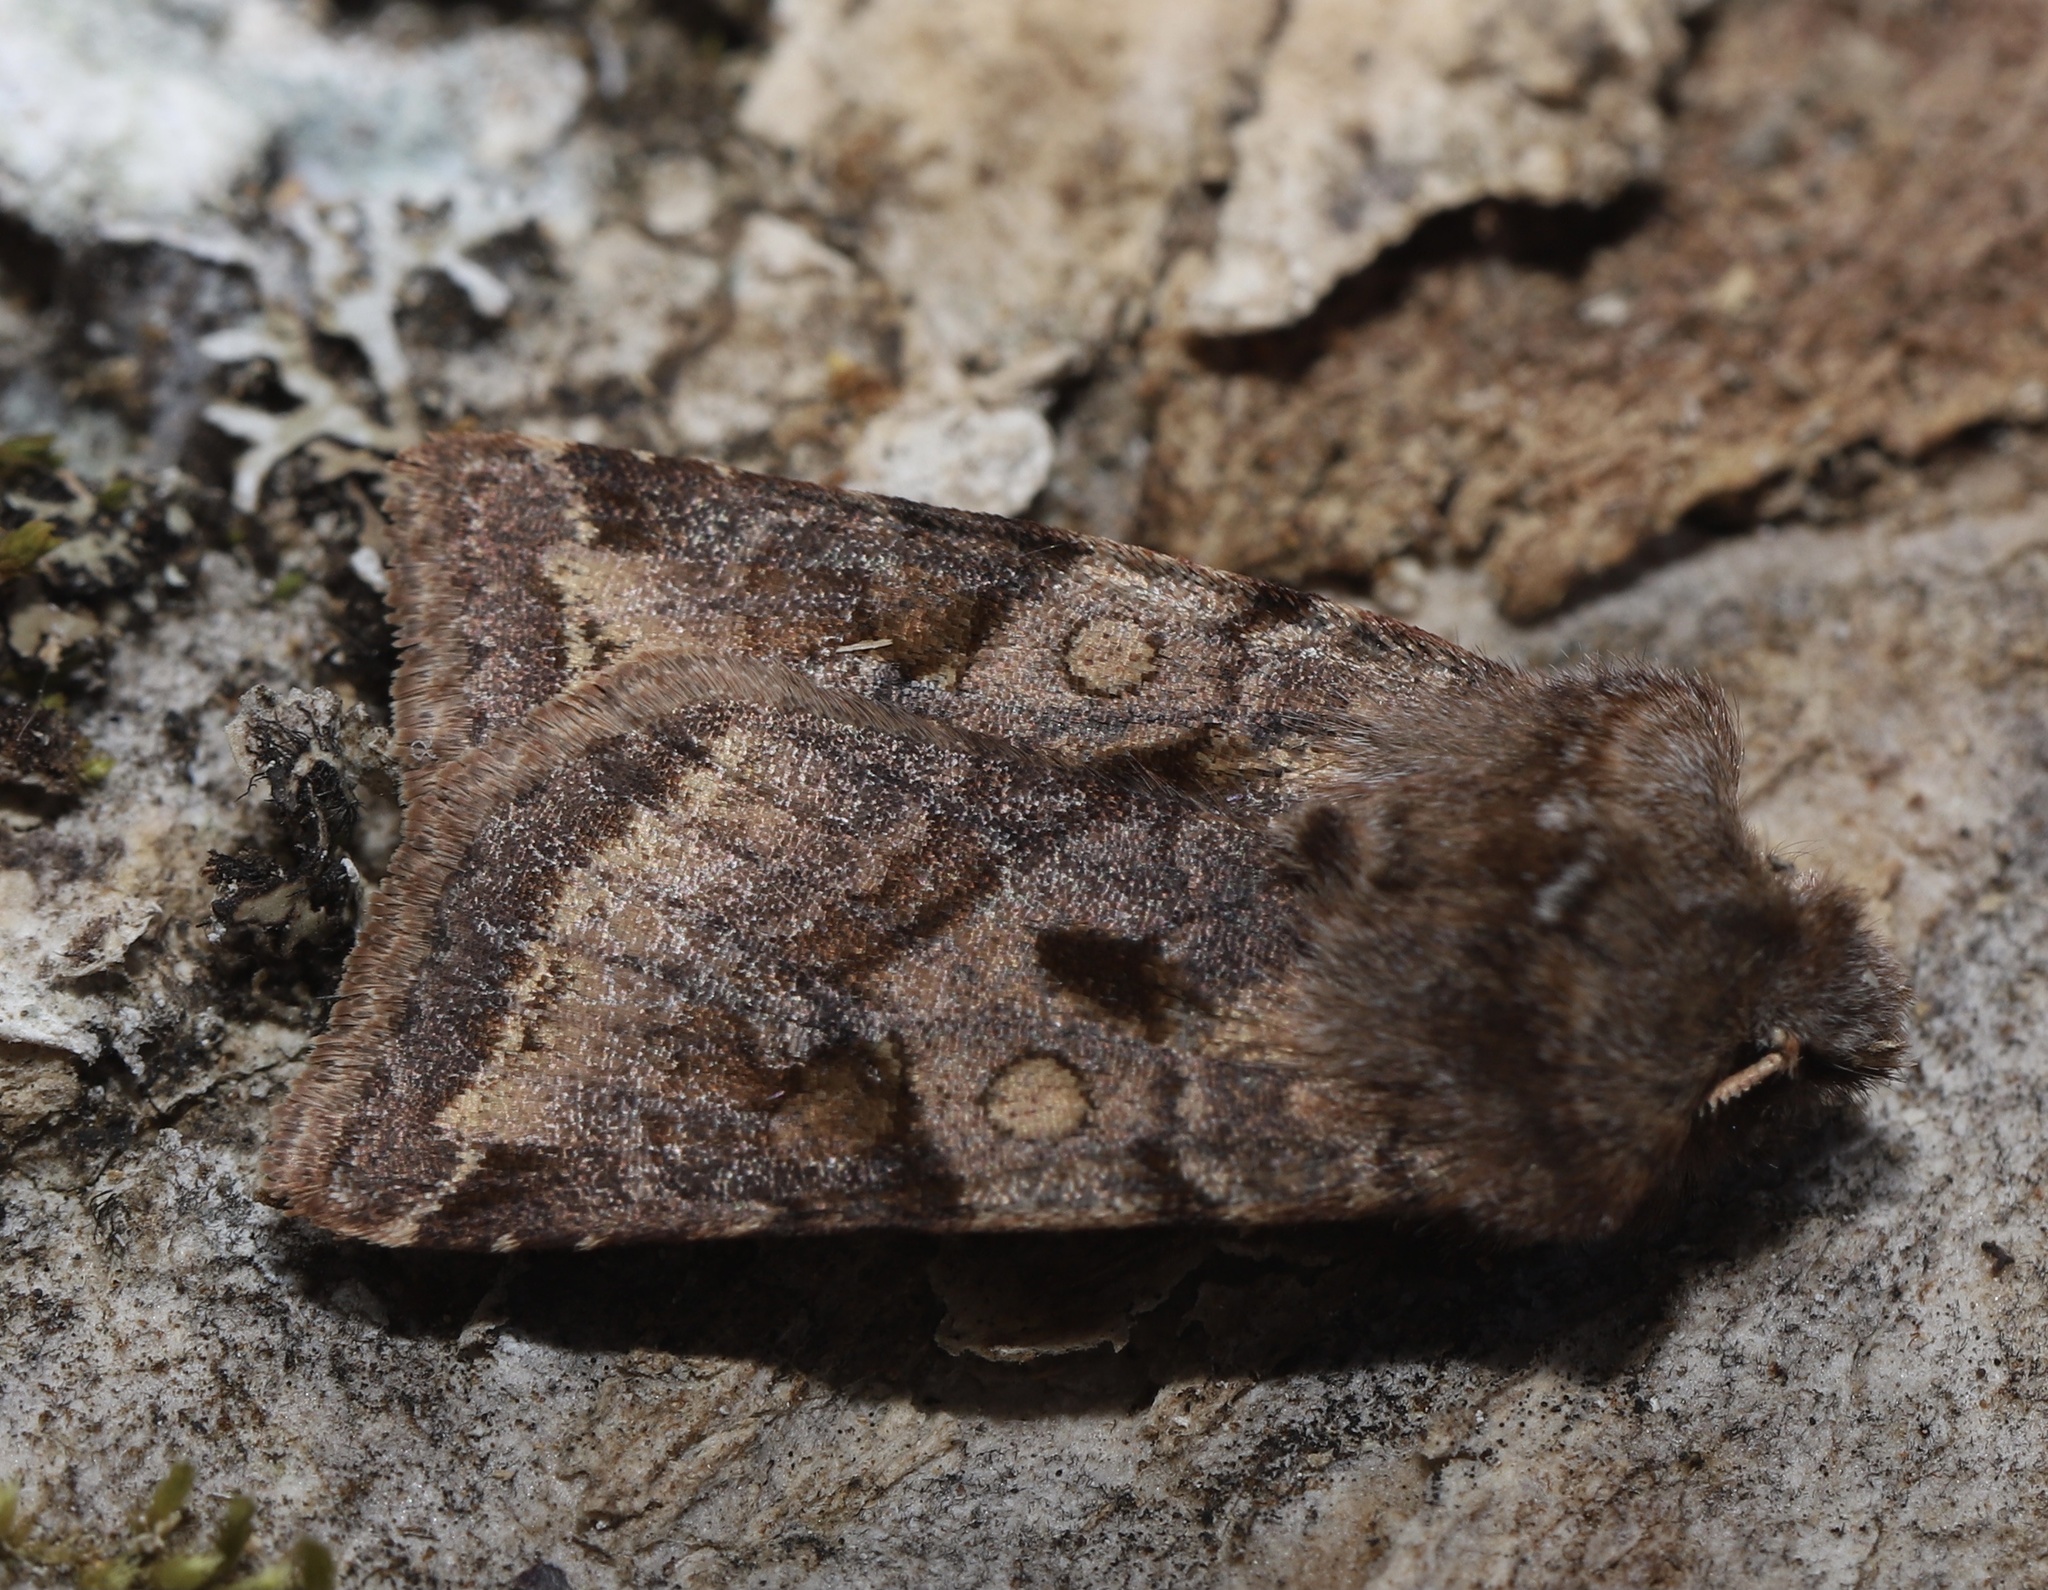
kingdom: Animalia
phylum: Arthropoda
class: Insecta
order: Lepidoptera
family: Noctuidae
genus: Cerastis
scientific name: Cerastis salicarum
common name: Willow dart
